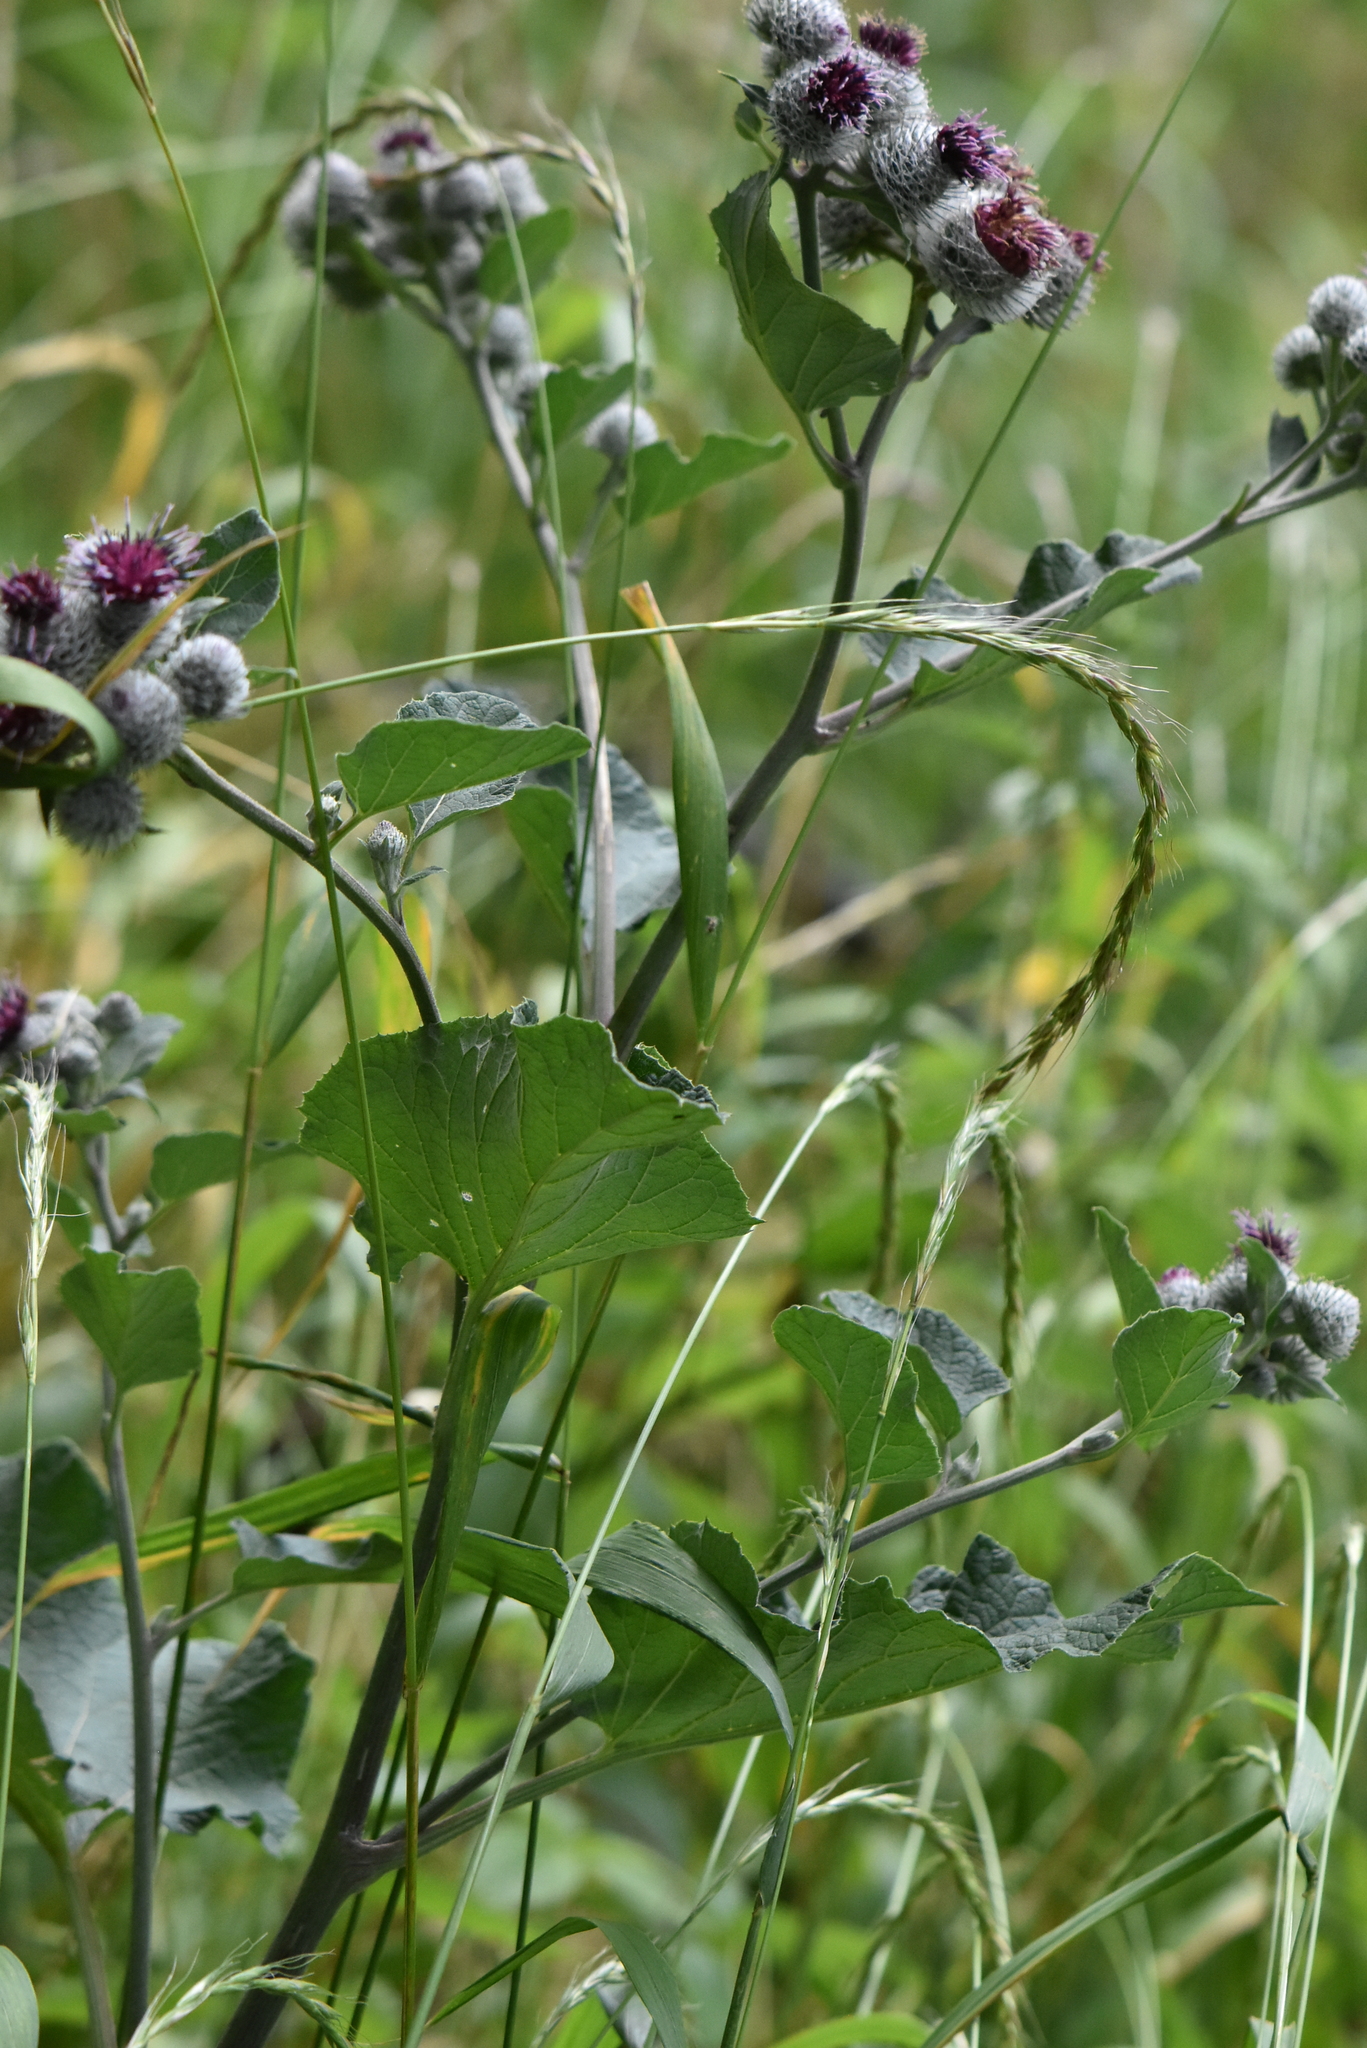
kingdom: Plantae
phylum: Tracheophyta
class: Magnoliopsida
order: Asterales
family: Asteraceae
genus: Arctium
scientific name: Arctium tomentosum
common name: Woolly burdock
